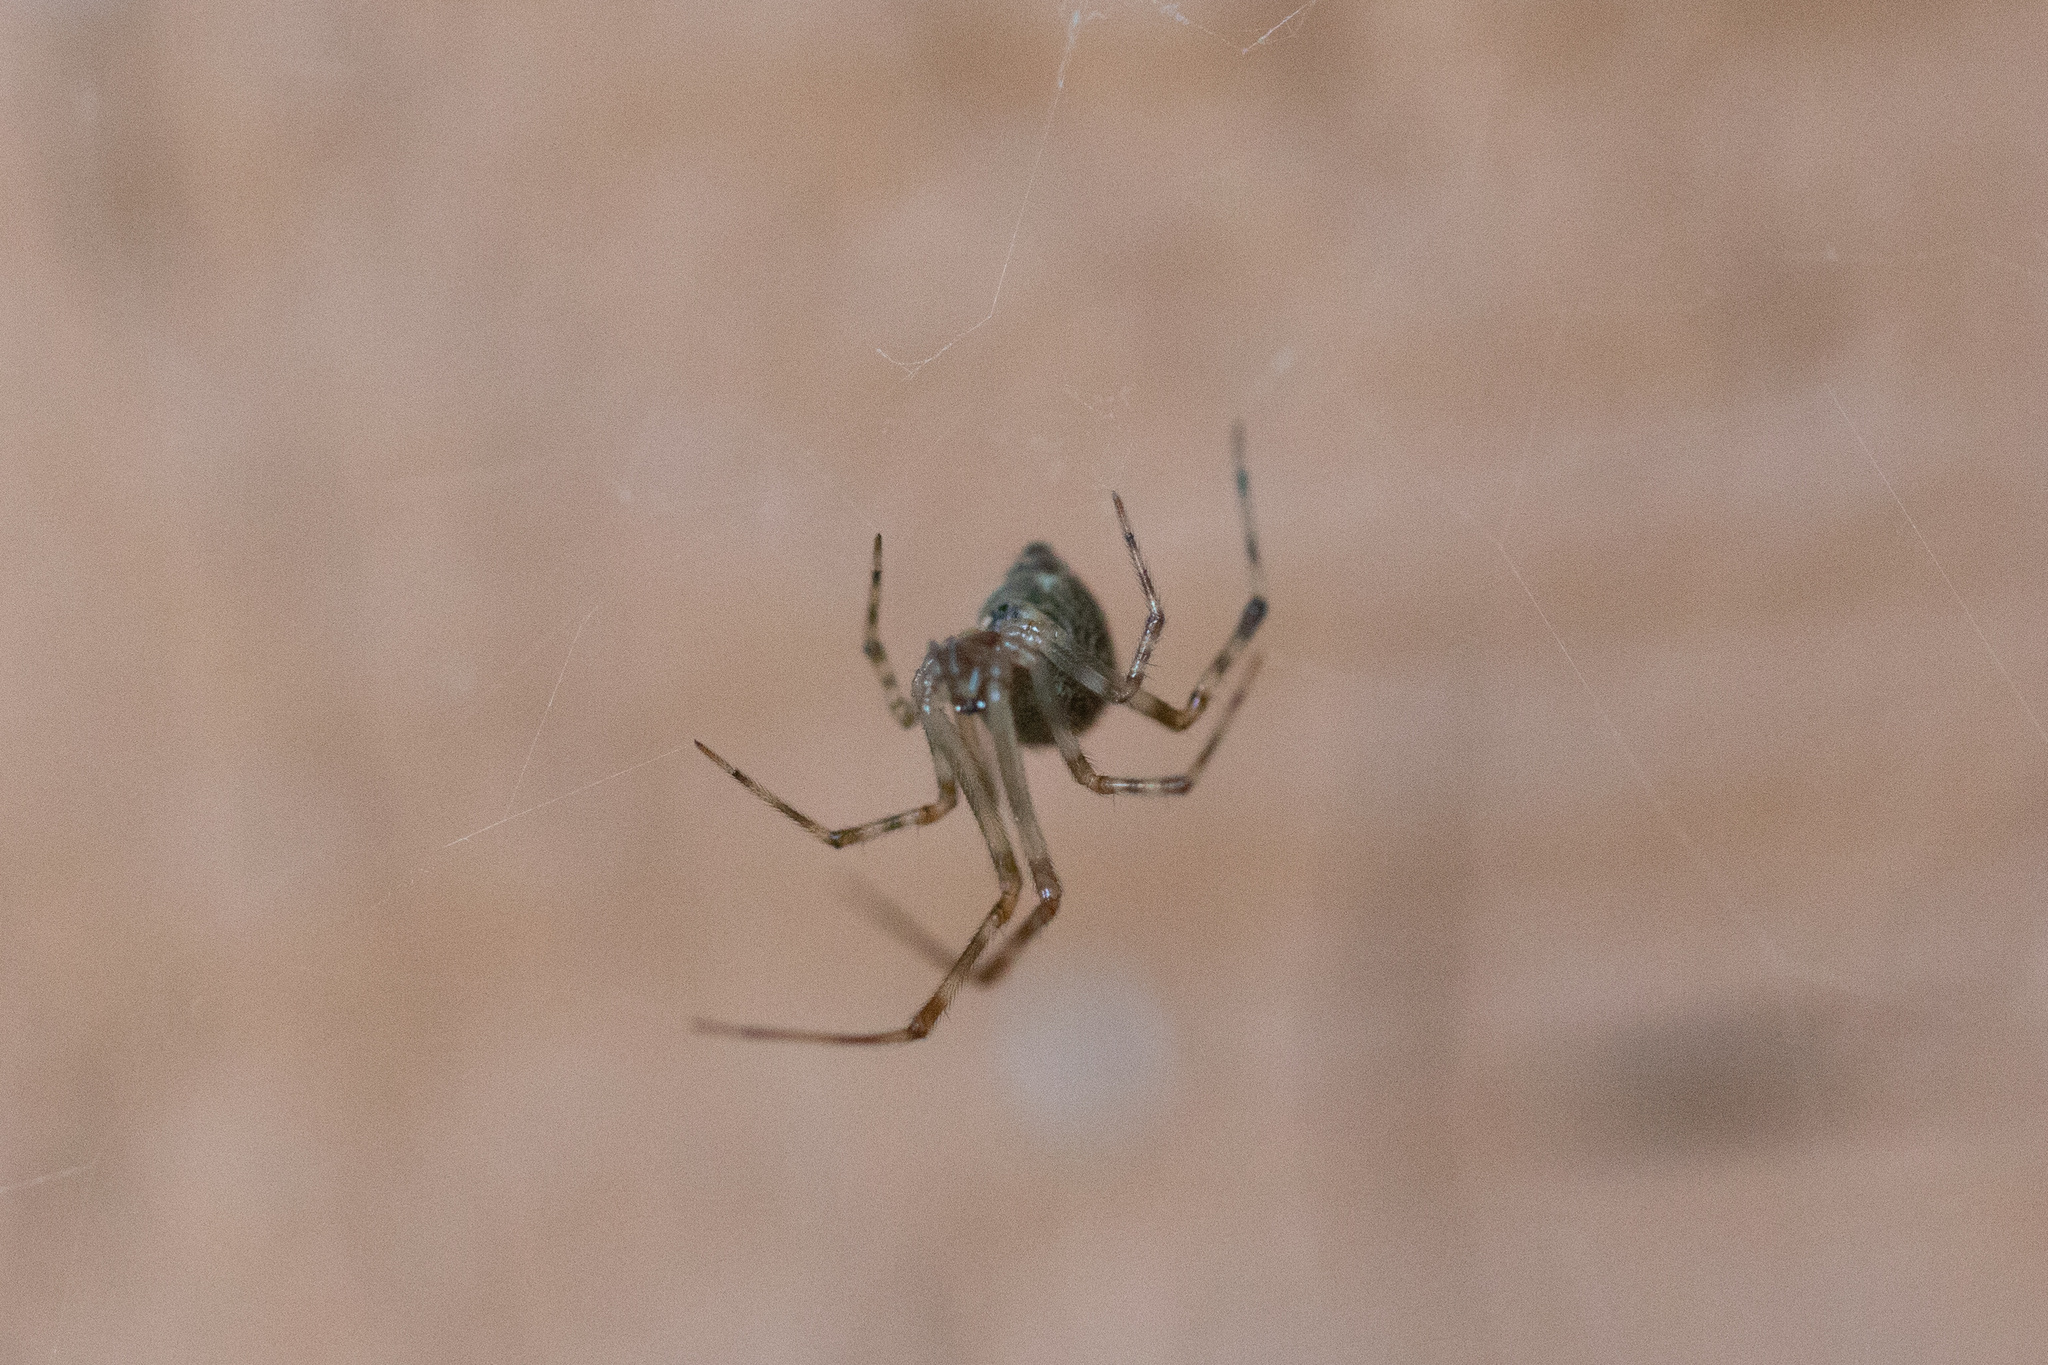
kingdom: Animalia
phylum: Arthropoda
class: Arachnida
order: Araneae
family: Theridiidae
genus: Parasteatoda
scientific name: Parasteatoda tepidariorum
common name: Common house spider
